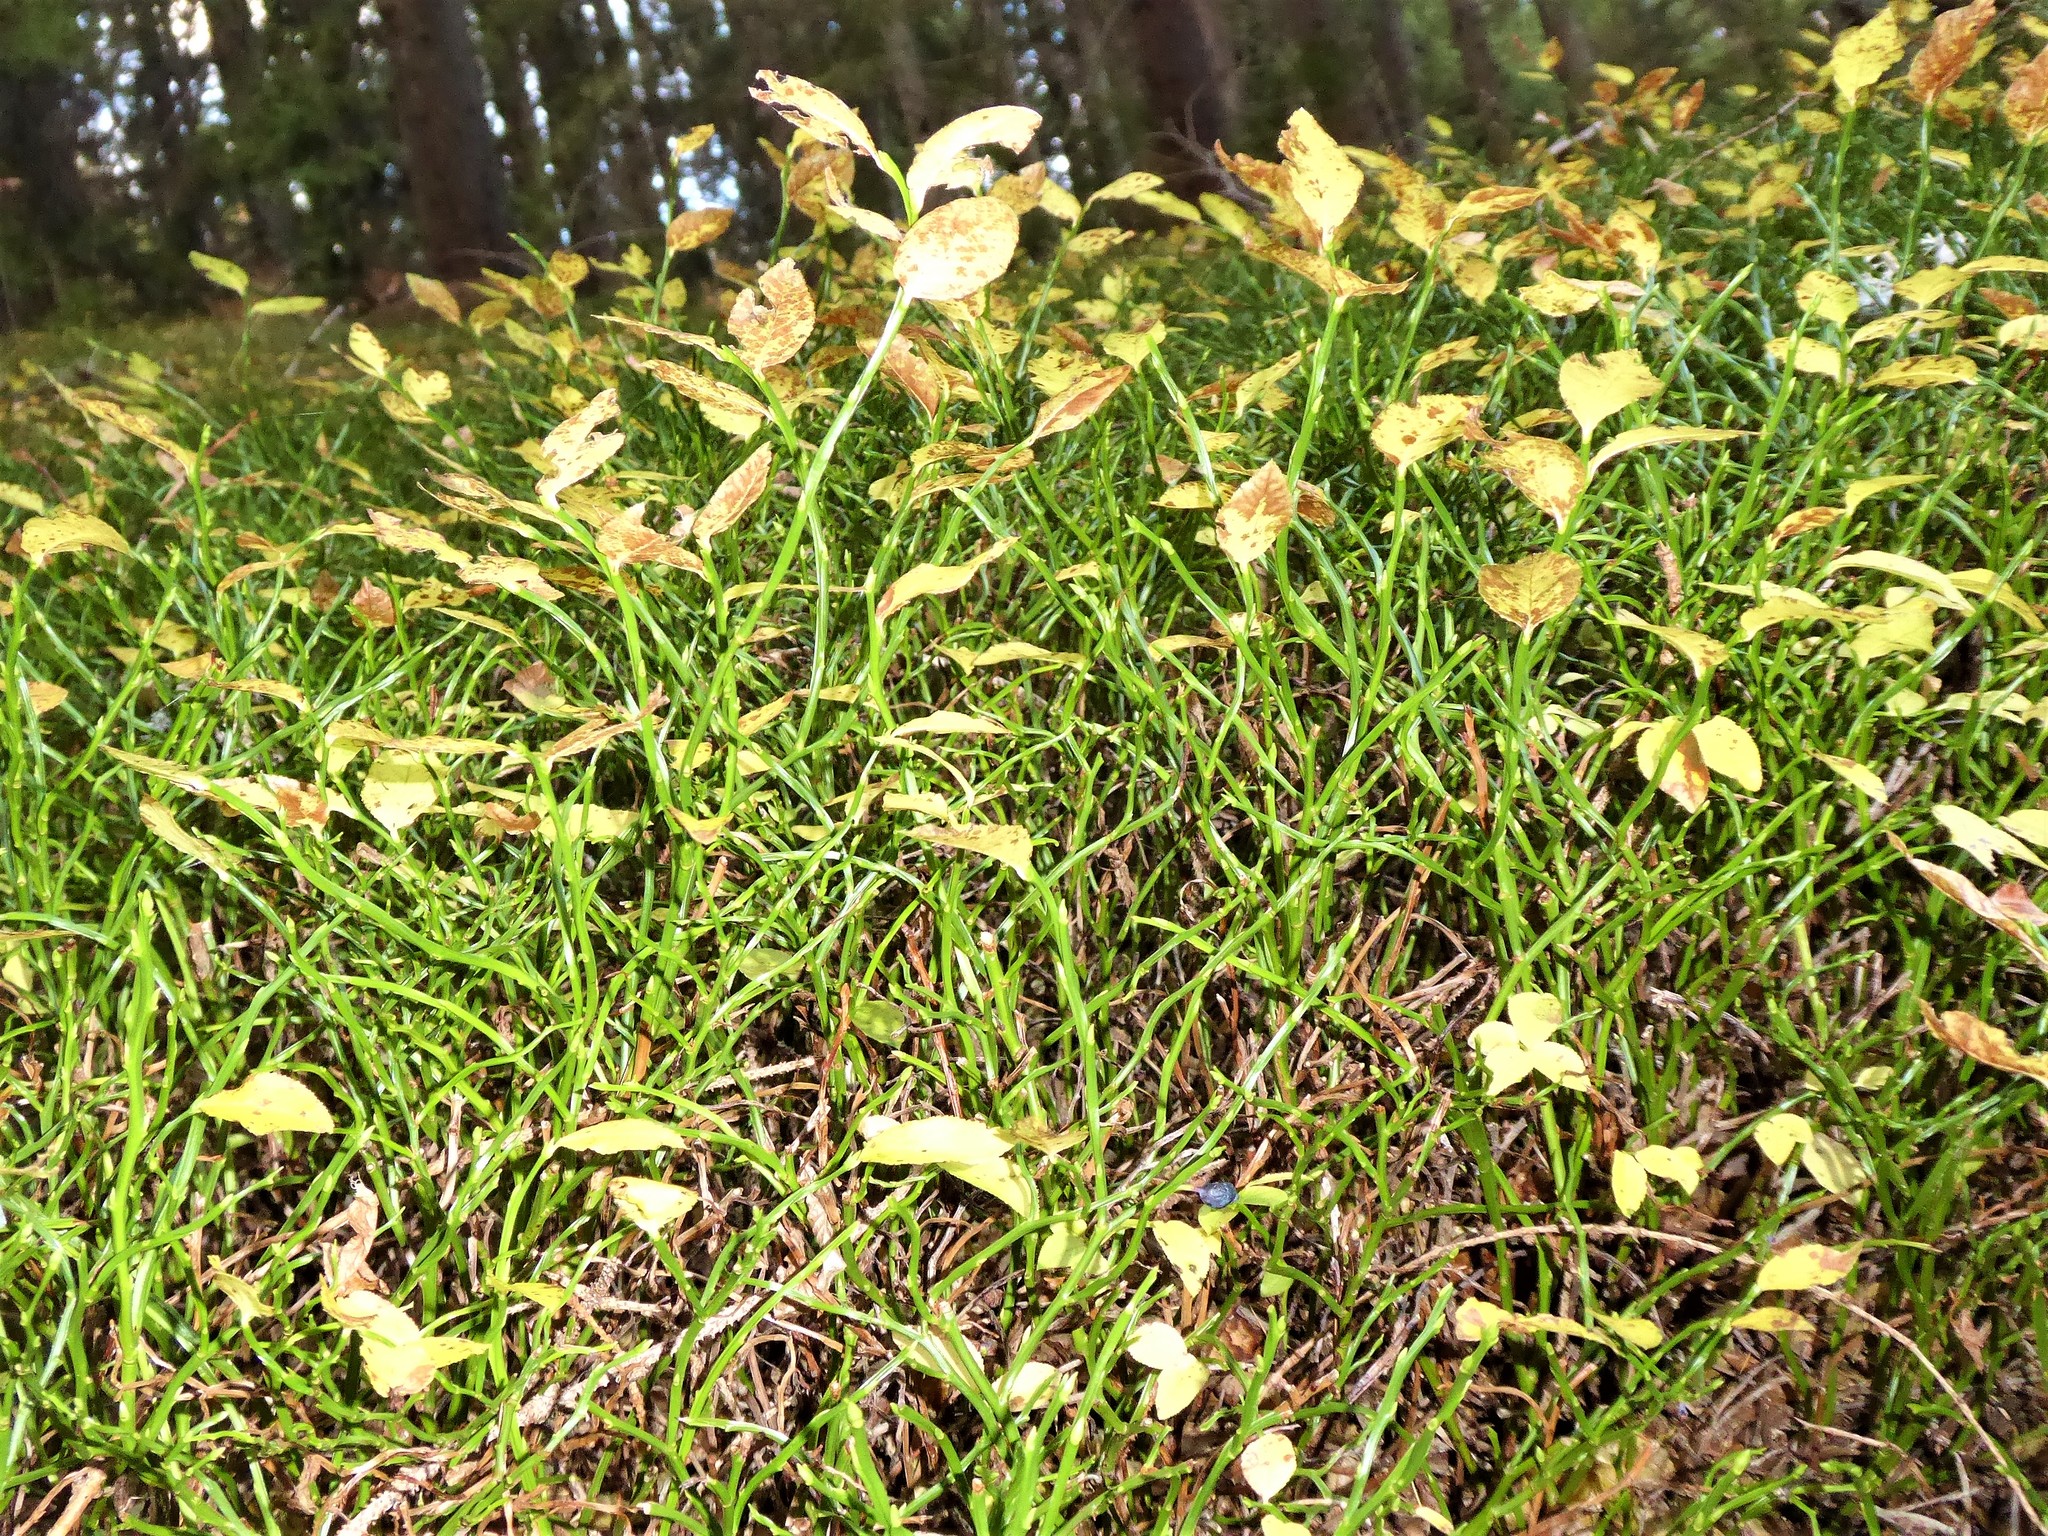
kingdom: Plantae
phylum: Tracheophyta
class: Magnoliopsida
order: Ericales
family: Ericaceae
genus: Vaccinium
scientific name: Vaccinium myrtillus
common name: Bilberry
